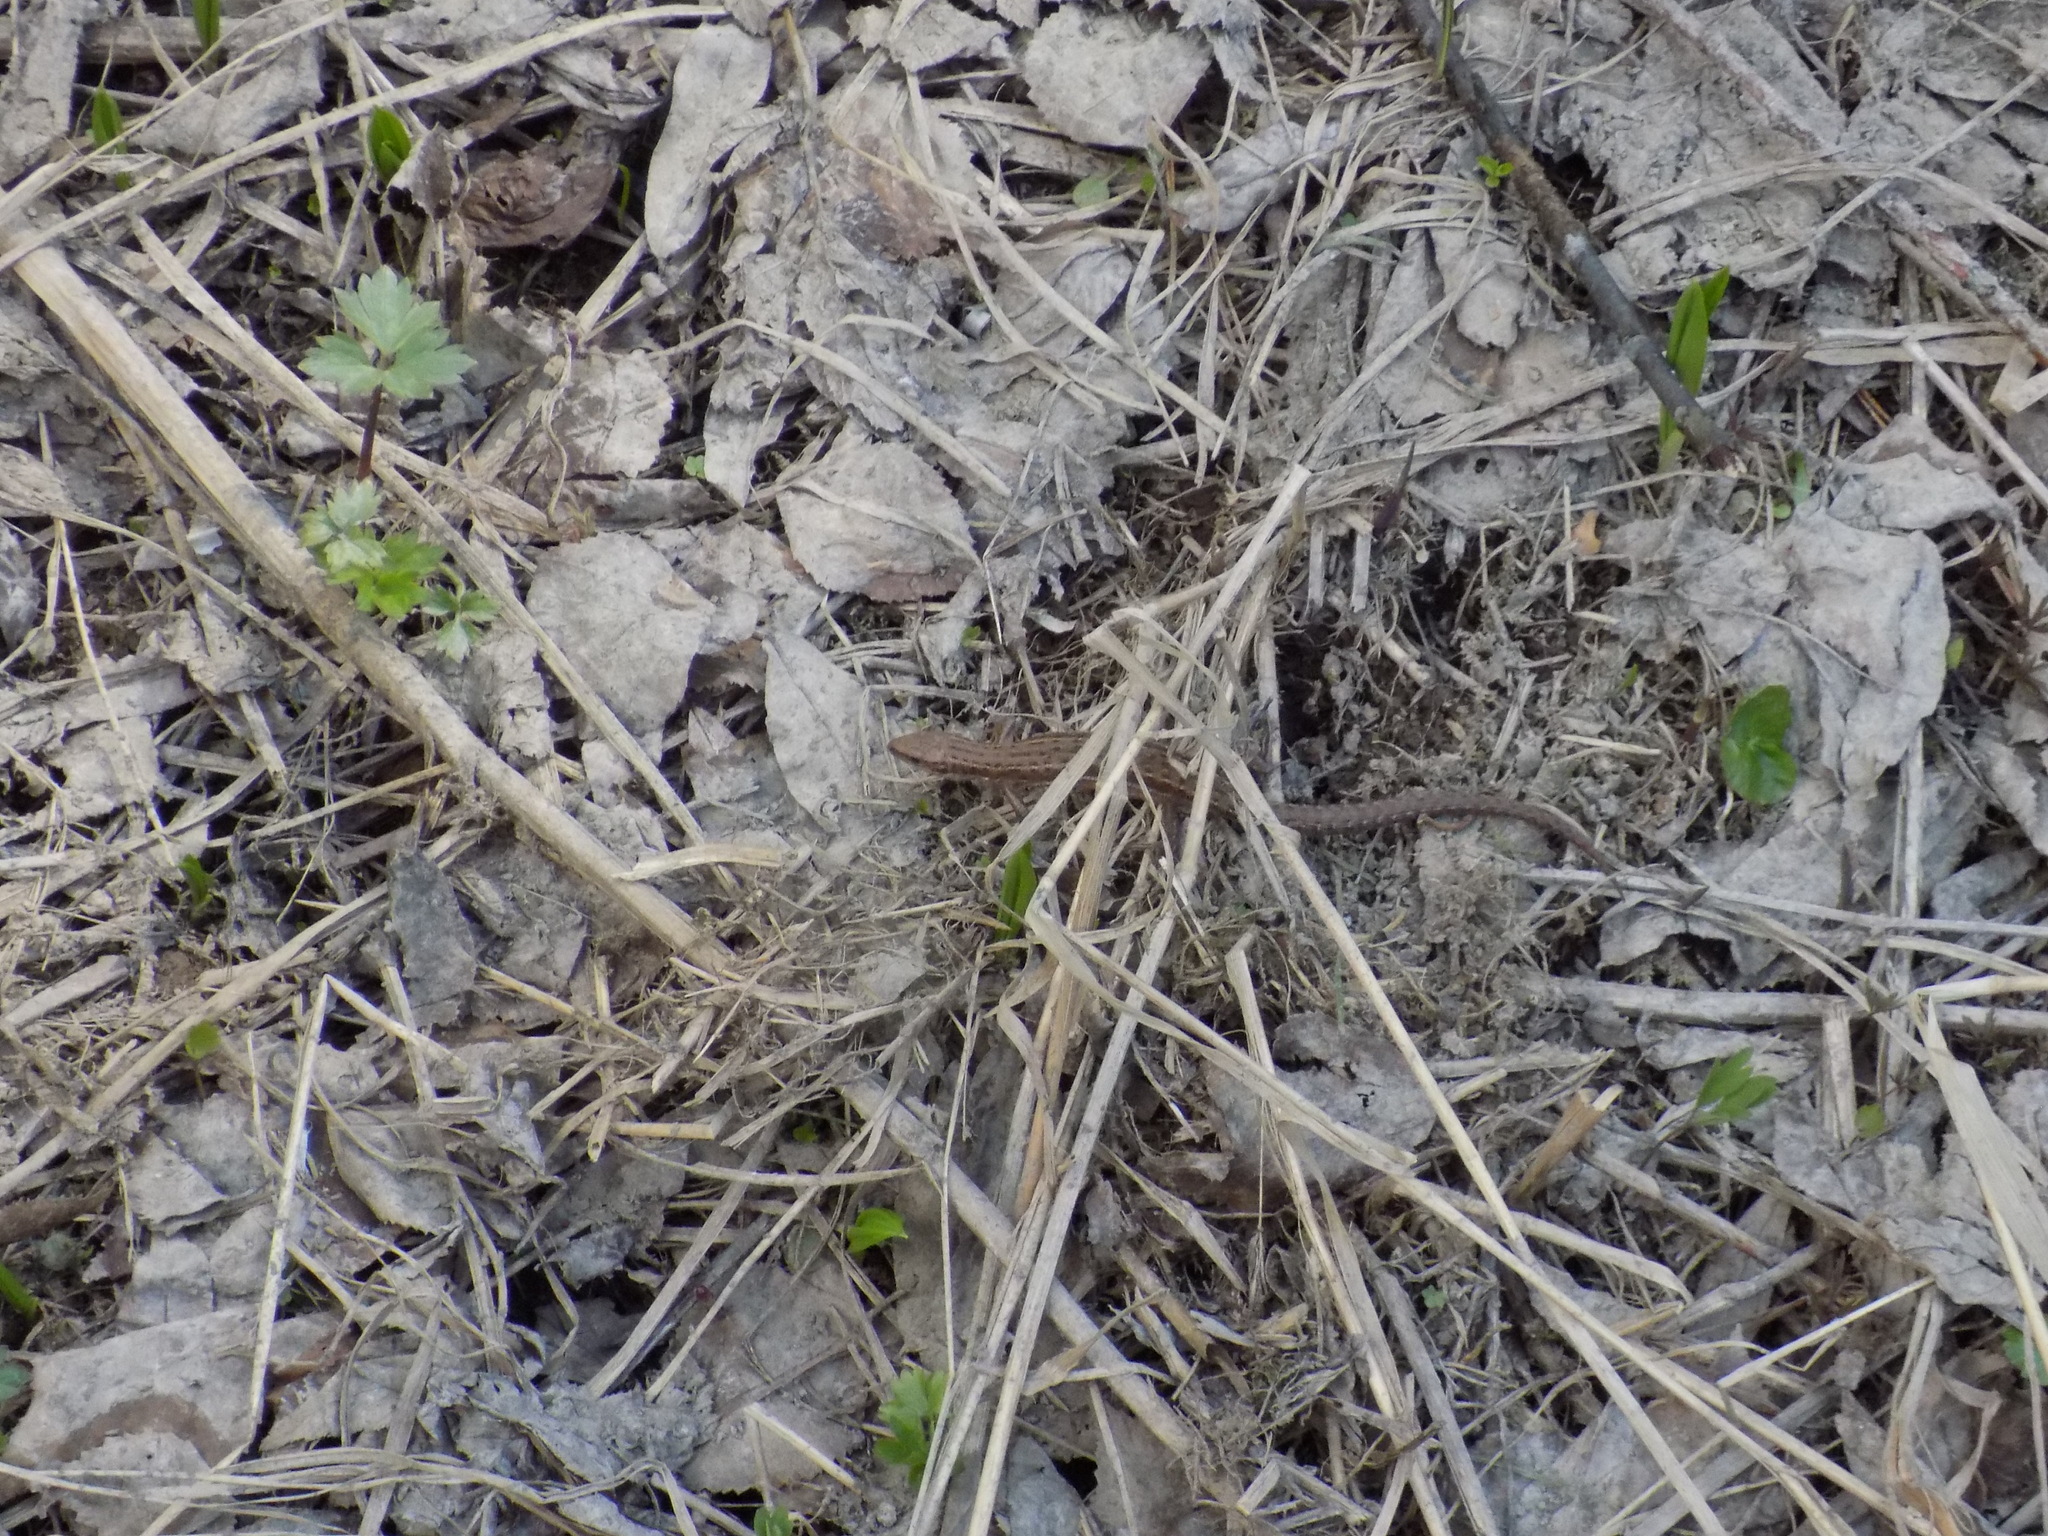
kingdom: Animalia
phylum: Chordata
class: Squamata
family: Lacertidae
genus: Zootoca
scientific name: Zootoca vivipara
